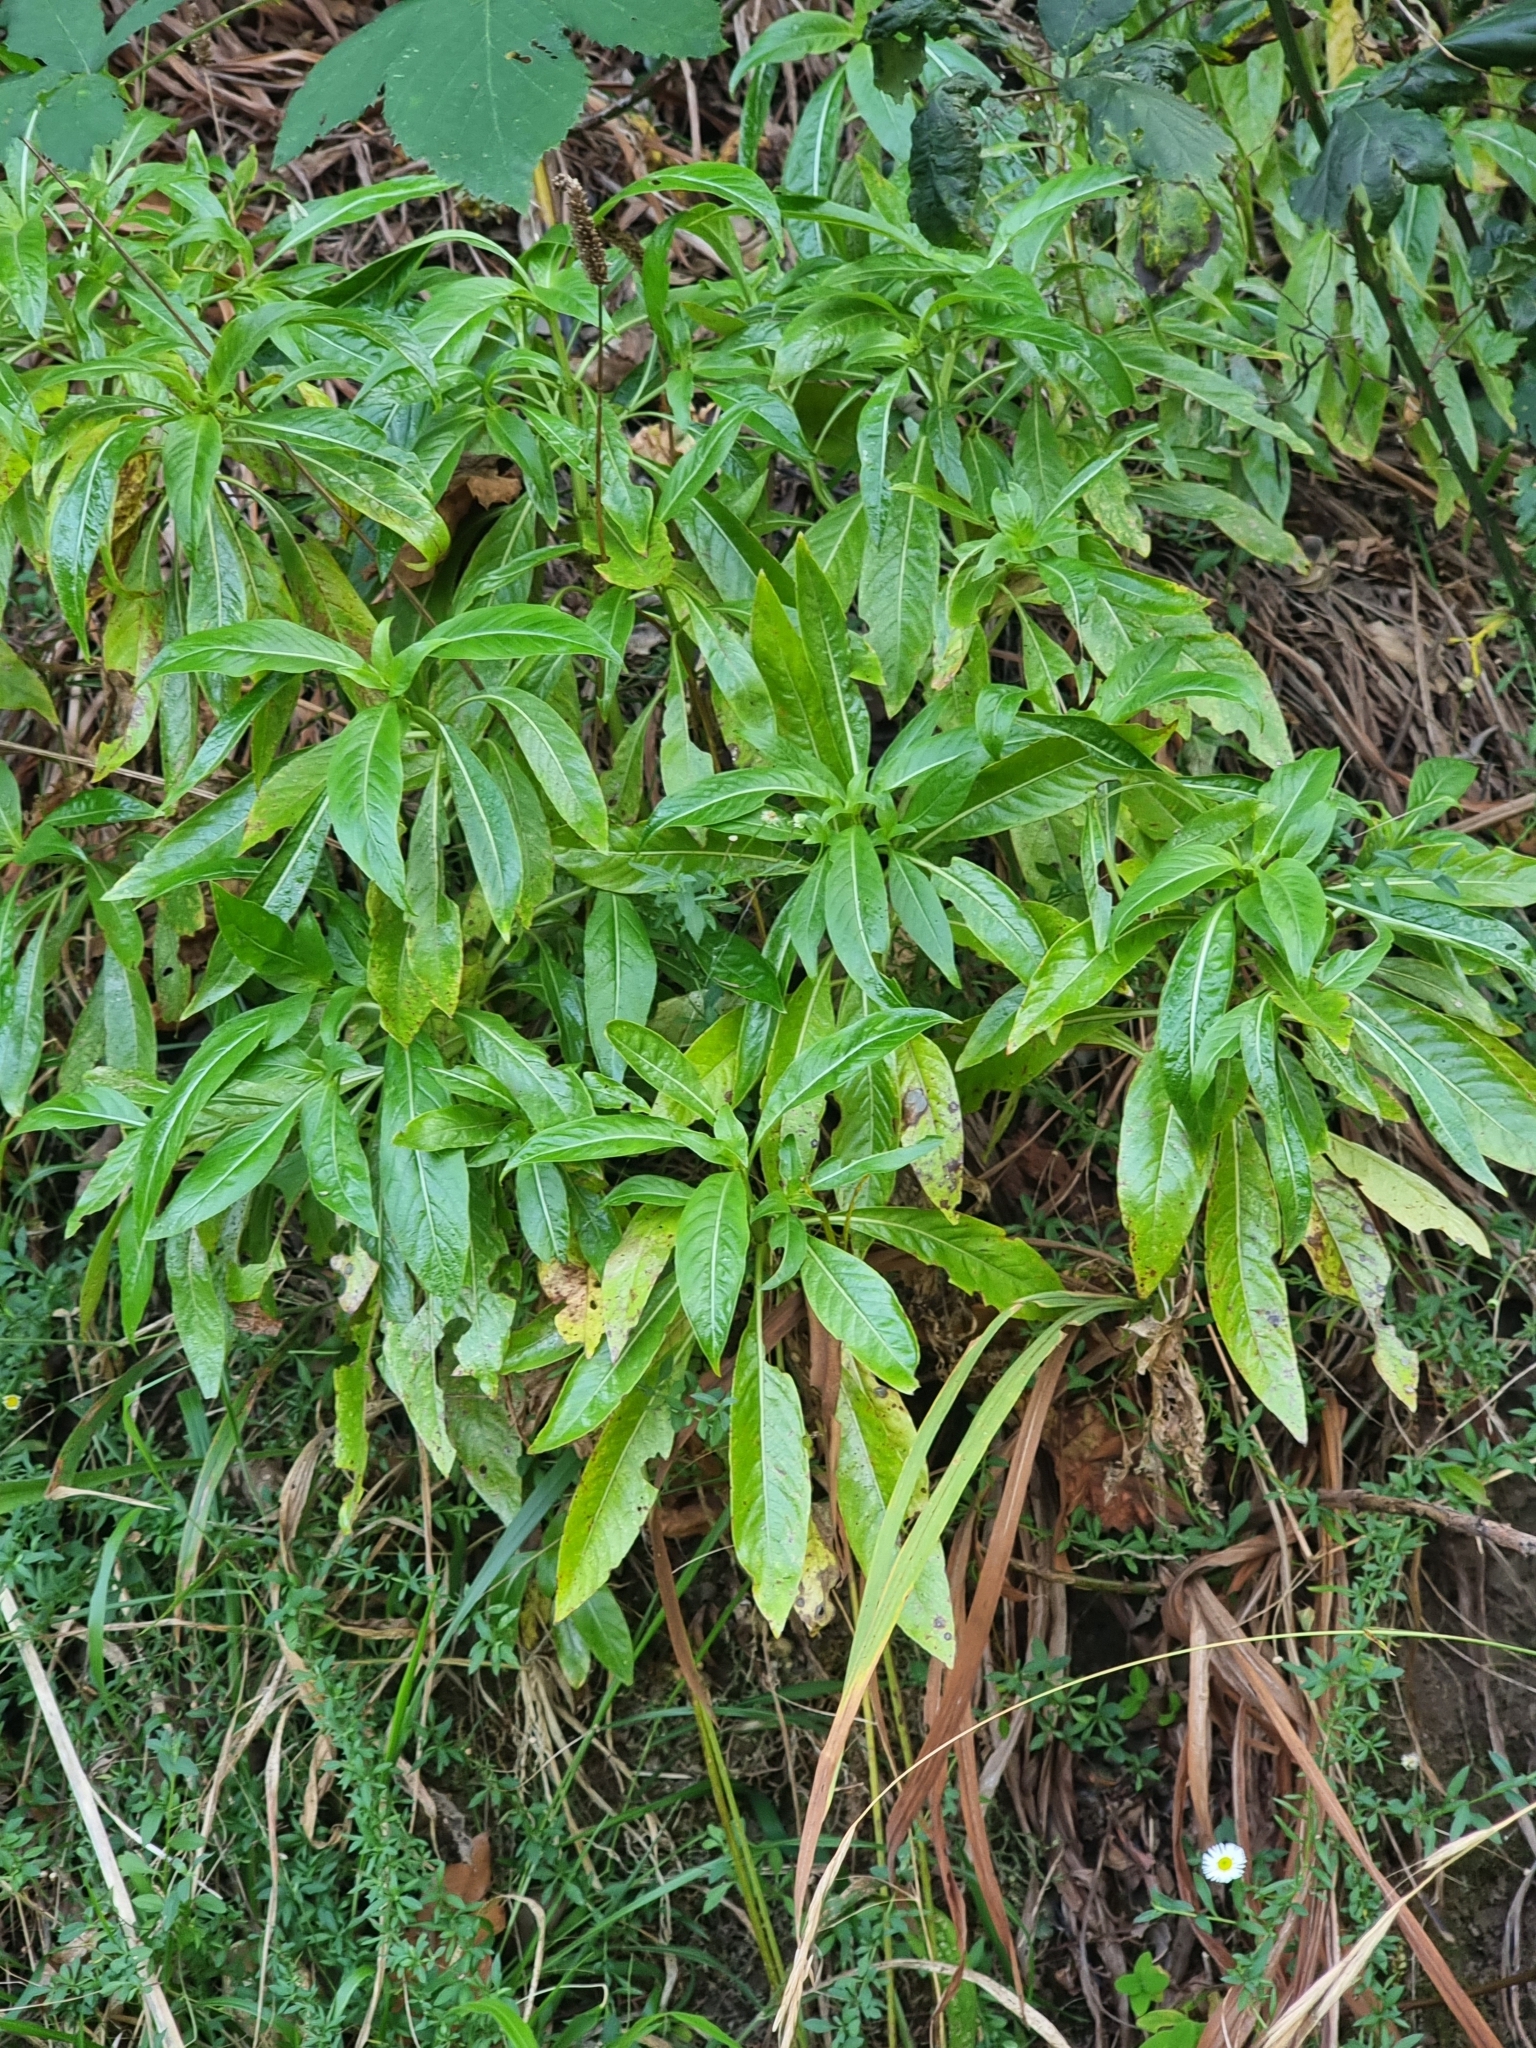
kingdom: Plantae
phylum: Tracheophyta
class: Magnoliopsida
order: Gentianales
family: Rubiaceae
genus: Phyllis
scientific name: Phyllis nobla
